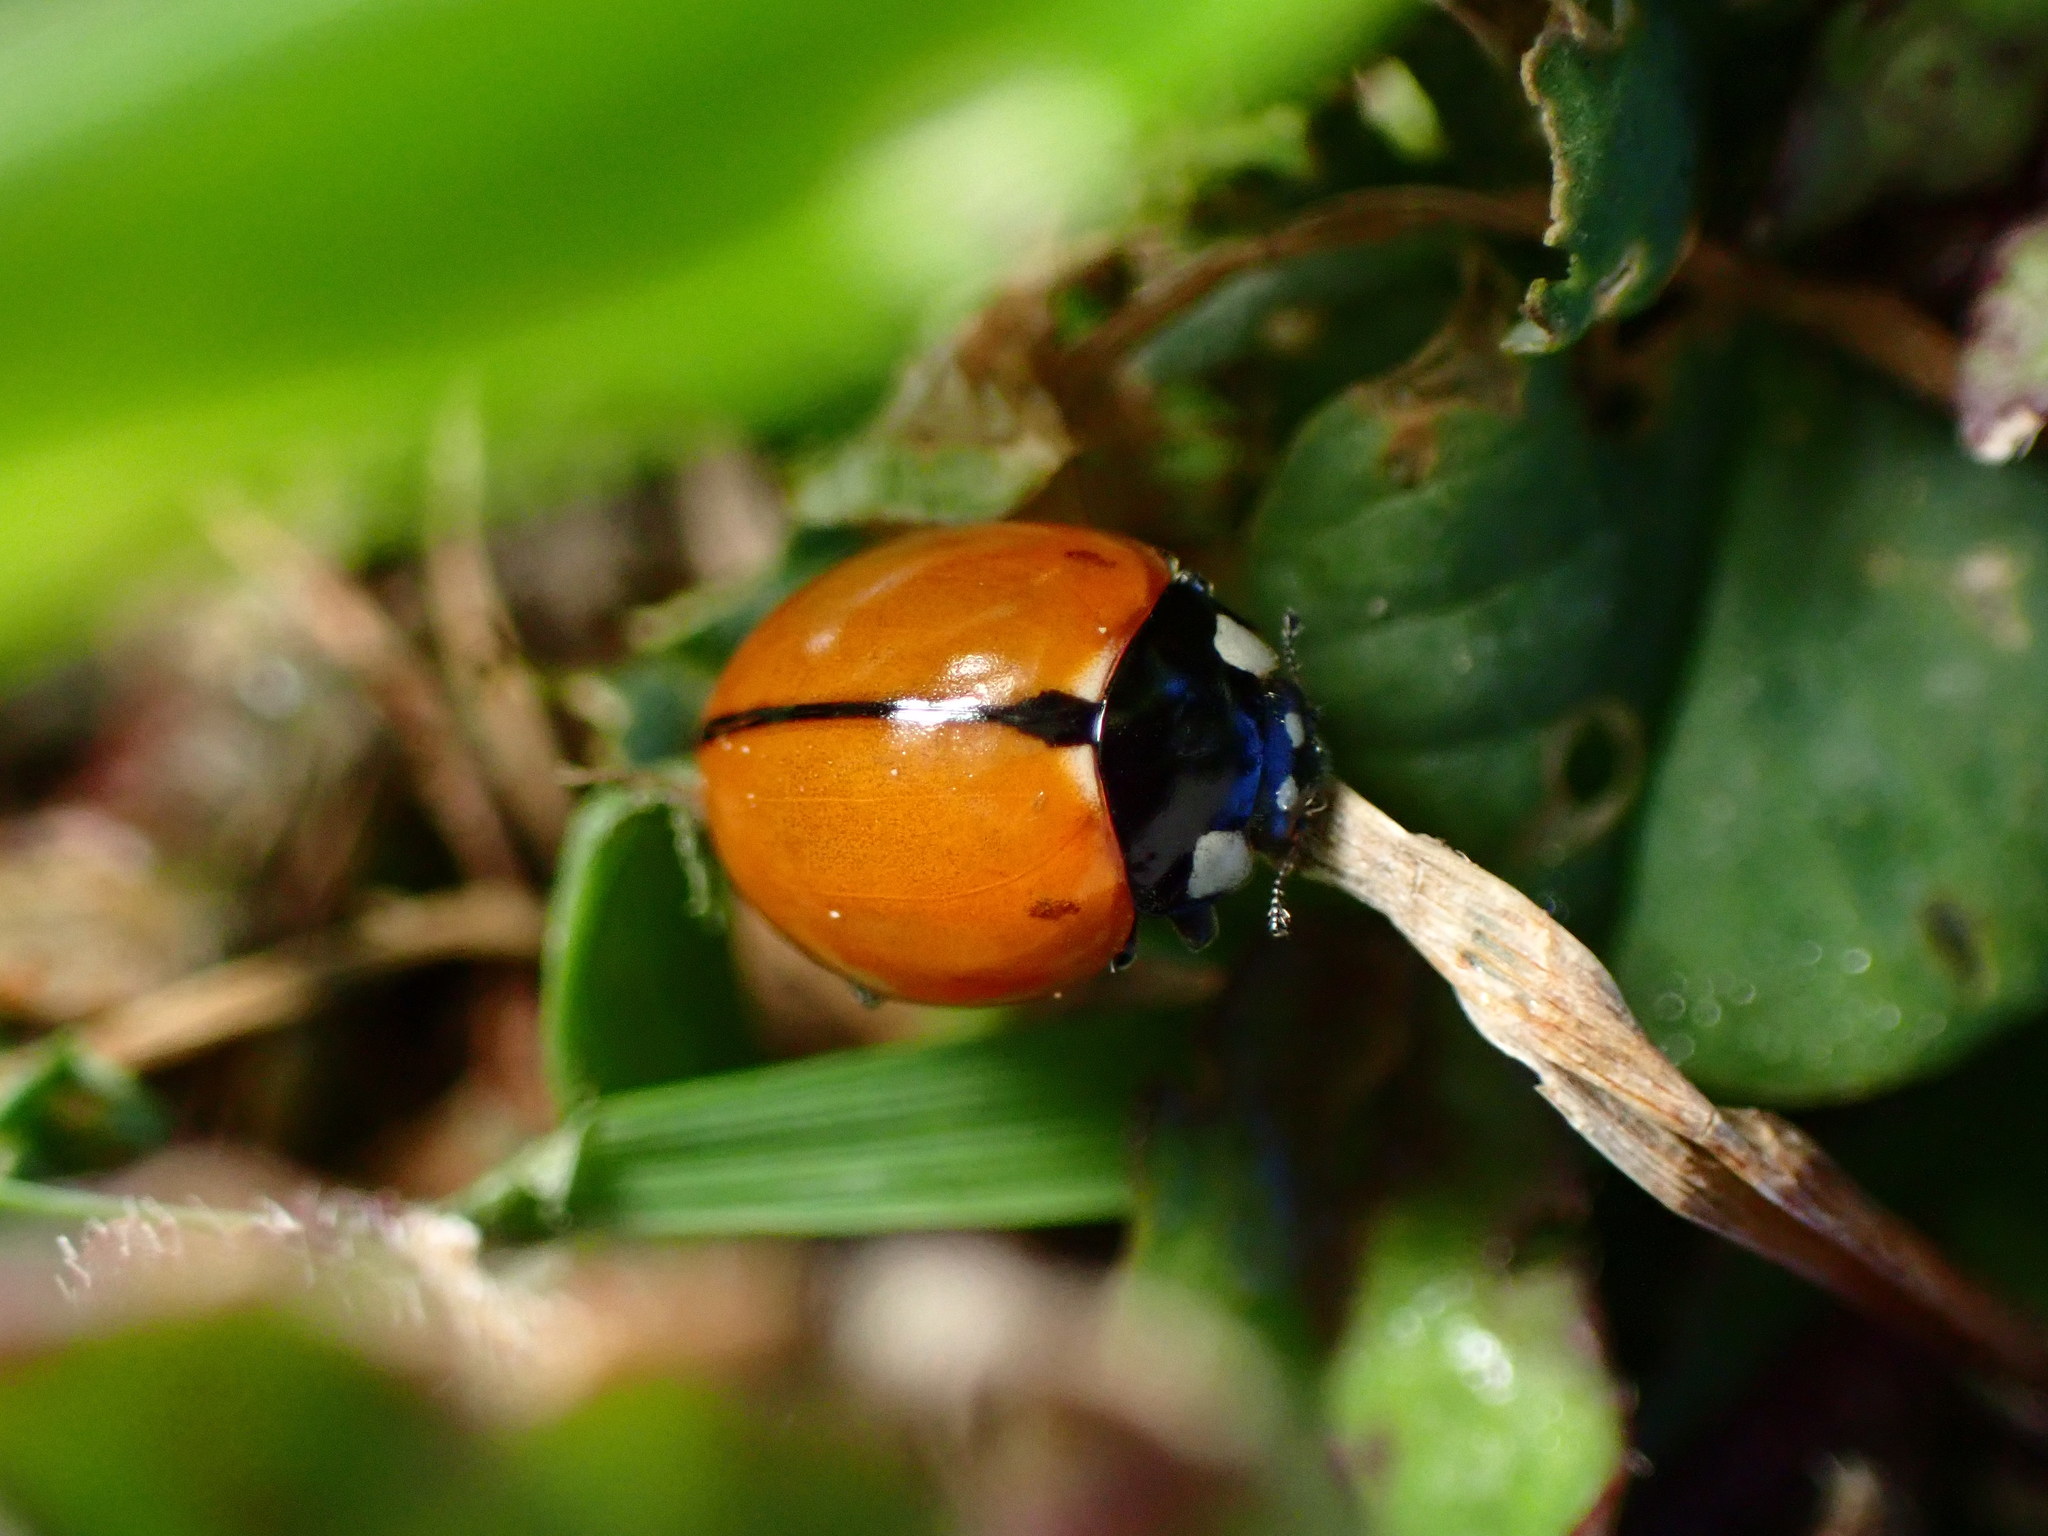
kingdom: Animalia
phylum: Arthropoda
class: Insecta
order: Coleoptera
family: Coccinellidae
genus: Coccinella
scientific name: Coccinella californica
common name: Lady beetle
